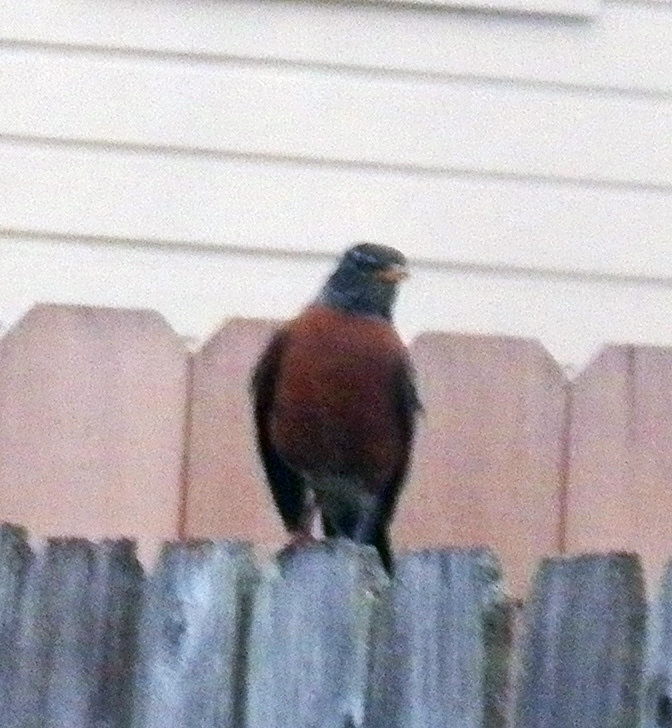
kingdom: Animalia
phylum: Chordata
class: Aves
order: Passeriformes
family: Turdidae
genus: Turdus
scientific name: Turdus migratorius
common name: American robin
